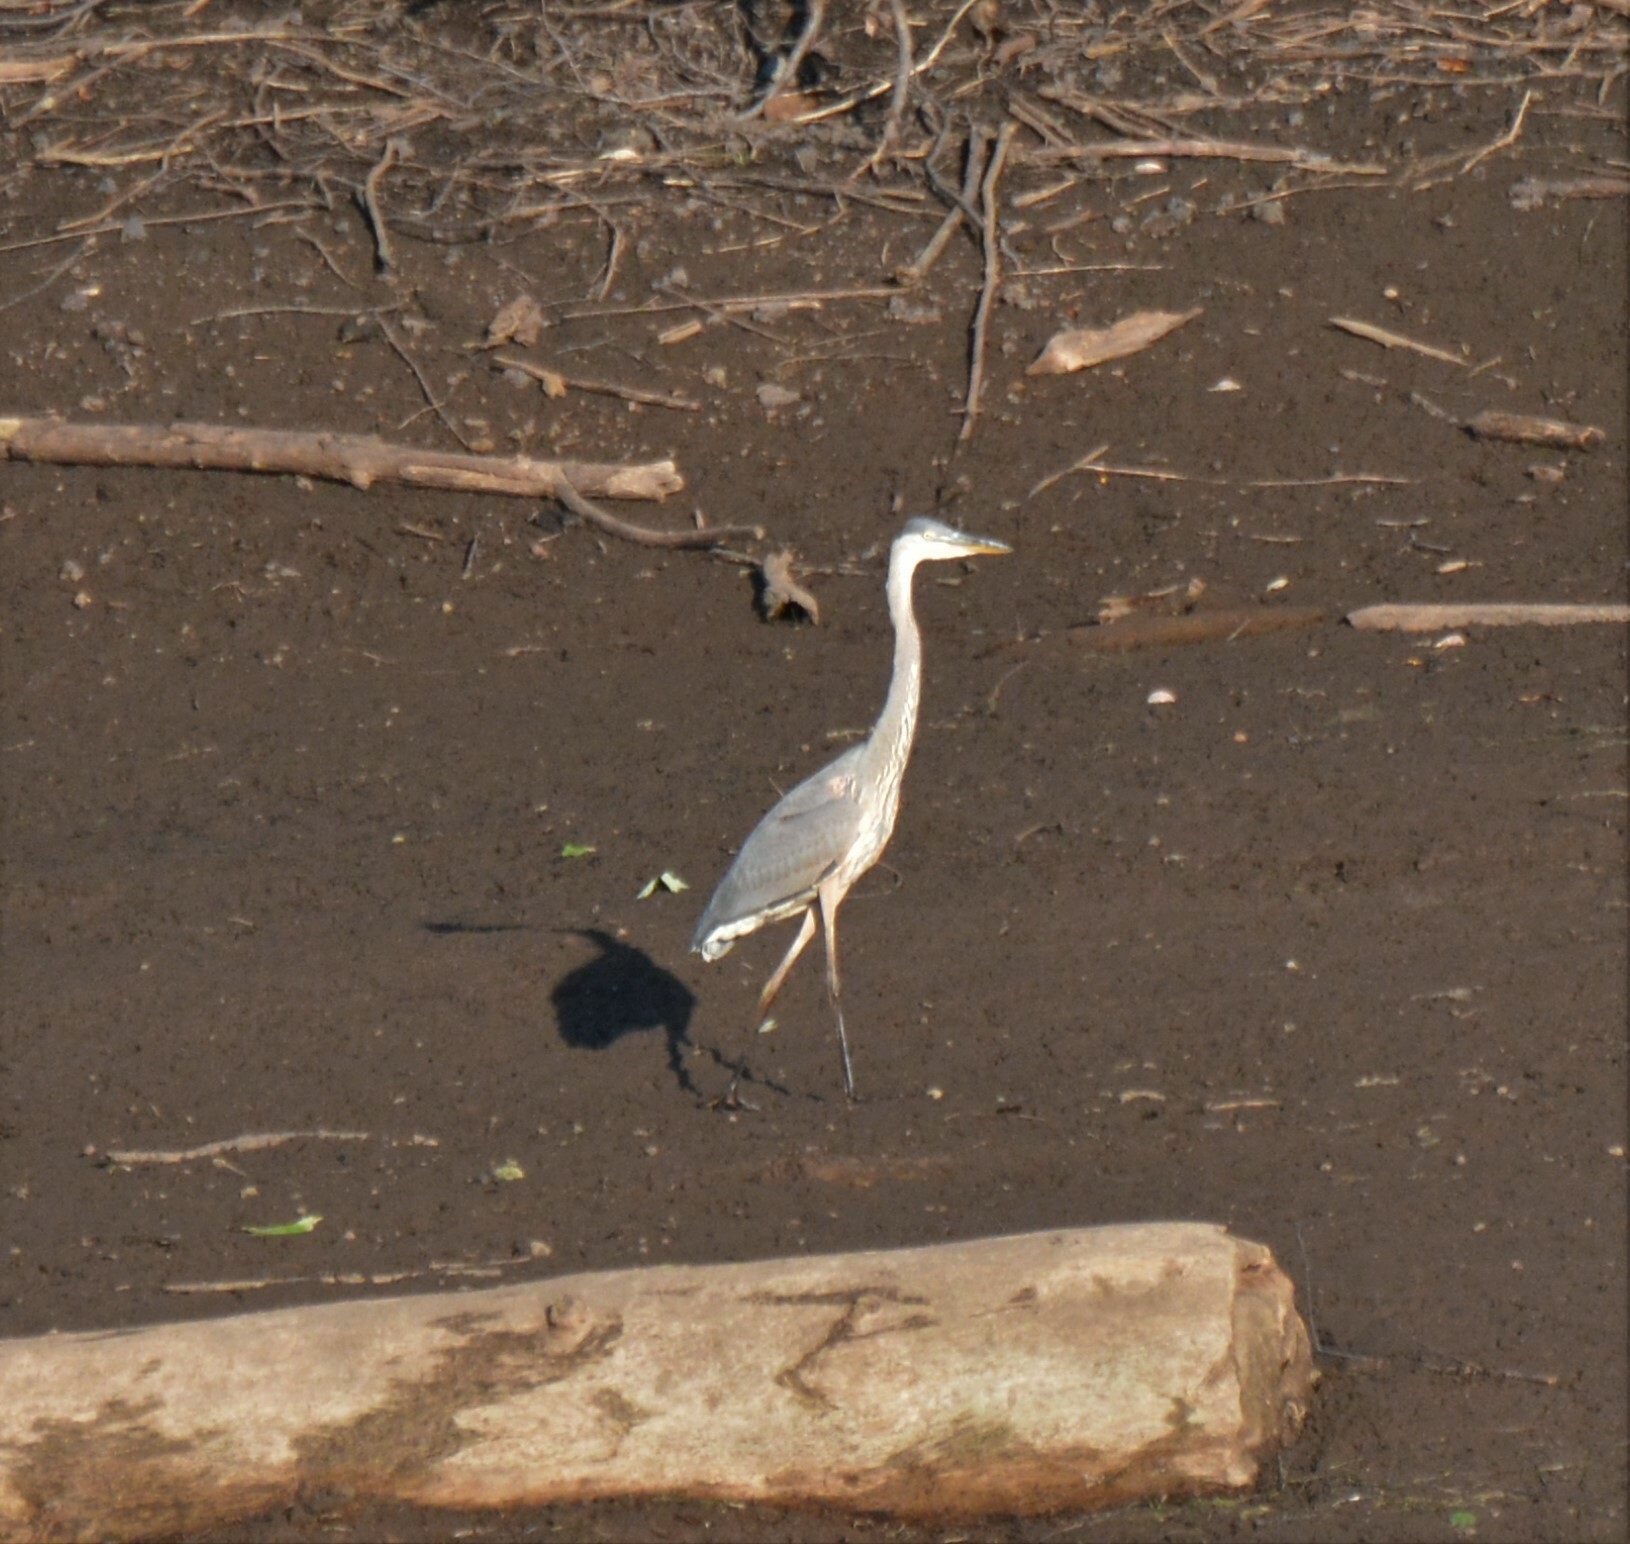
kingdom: Animalia
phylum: Chordata
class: Aves
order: Pelecaniformes
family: Ardeidae
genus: Ardea
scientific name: Ardea herodias
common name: Great blue heron
